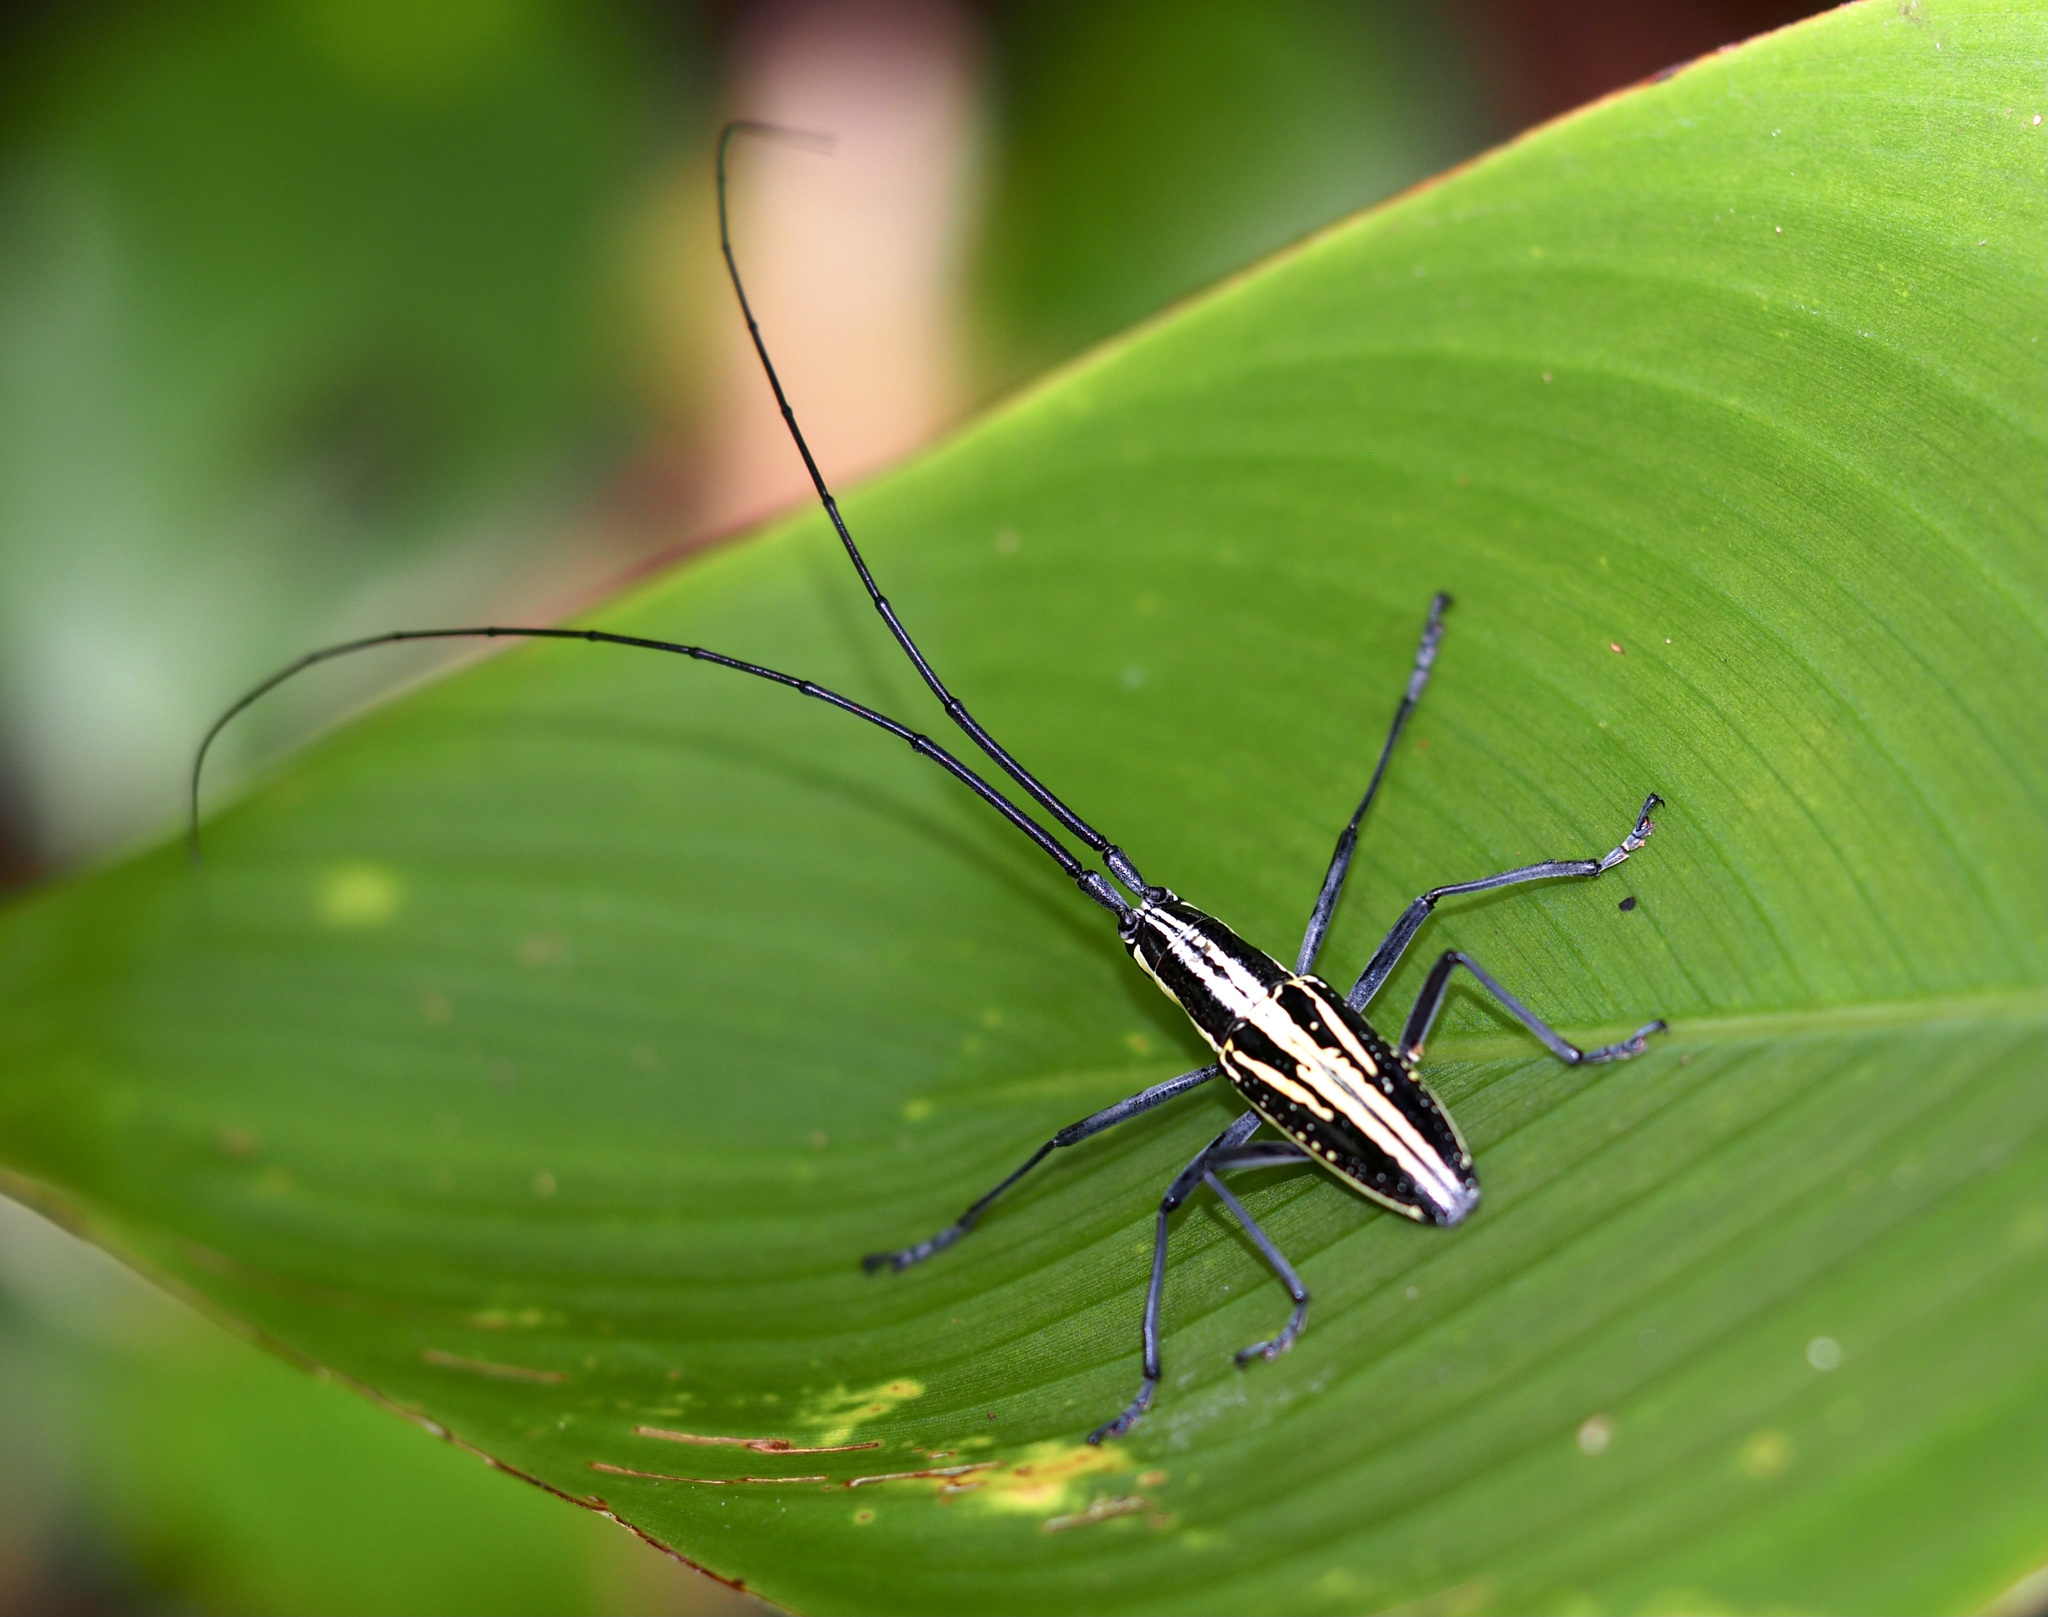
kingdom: Animalia
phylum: Arthropoda
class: Insecta
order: Coleoptera
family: Cerambycidae
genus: Ptychodes
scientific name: Ptychodes politus
